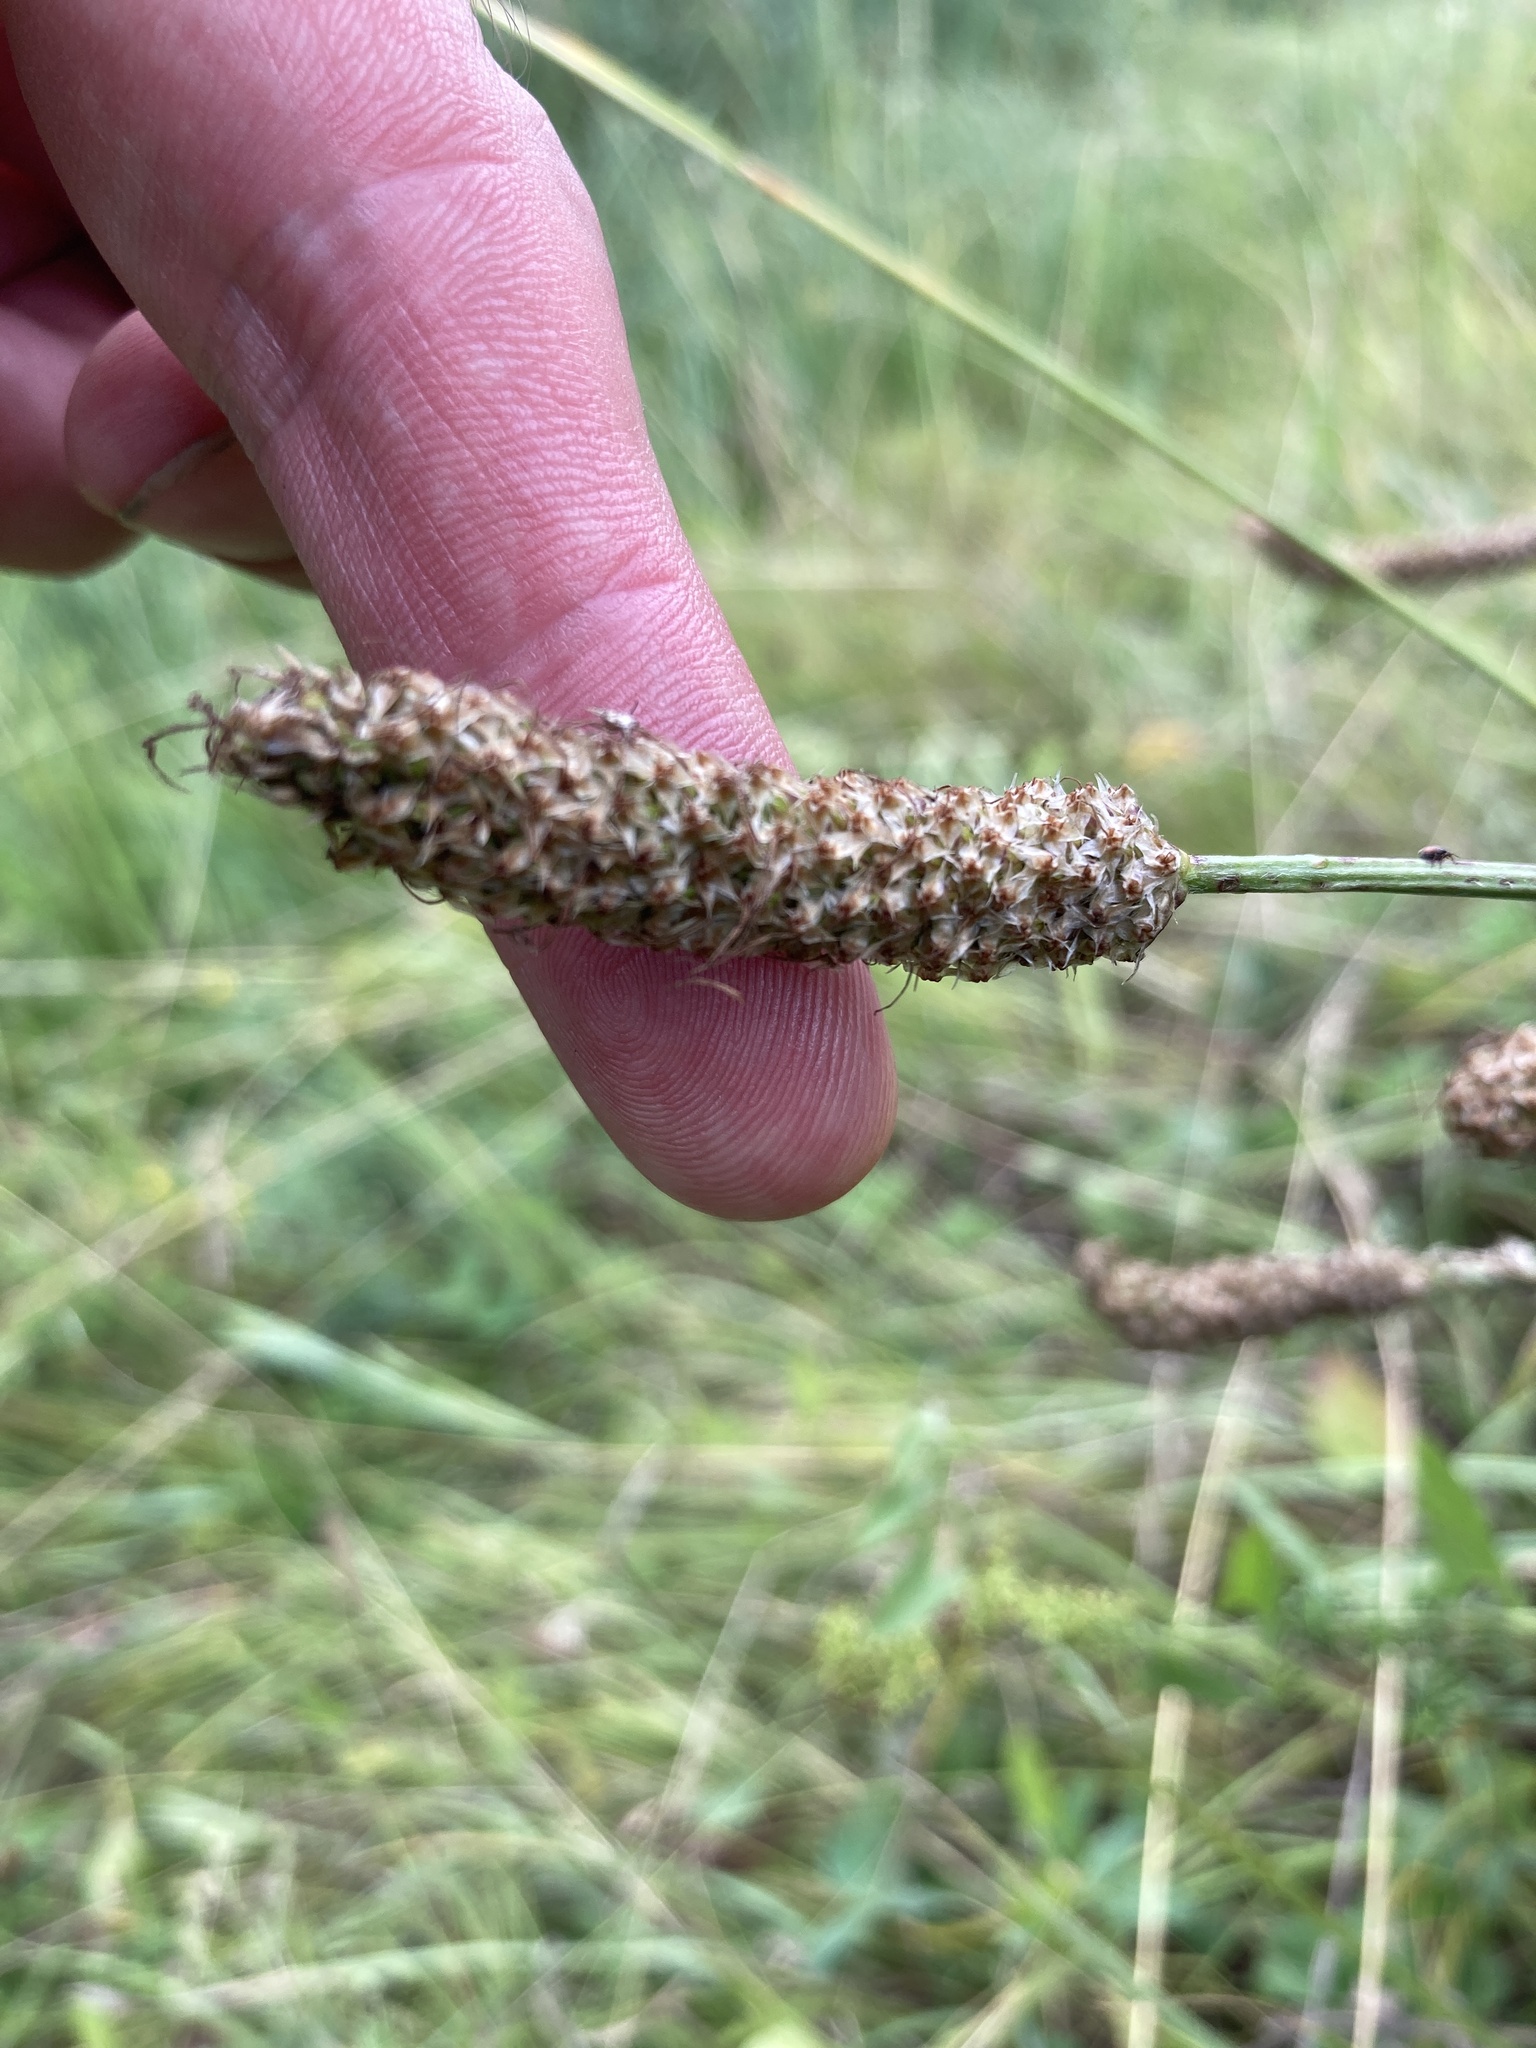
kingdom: Plantae
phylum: Tracheophyta
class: Magnoliopsida
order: Lamiales
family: Plantaginaceae
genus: Plantago
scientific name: Plantago lanceolata
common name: Ribwort plantain
